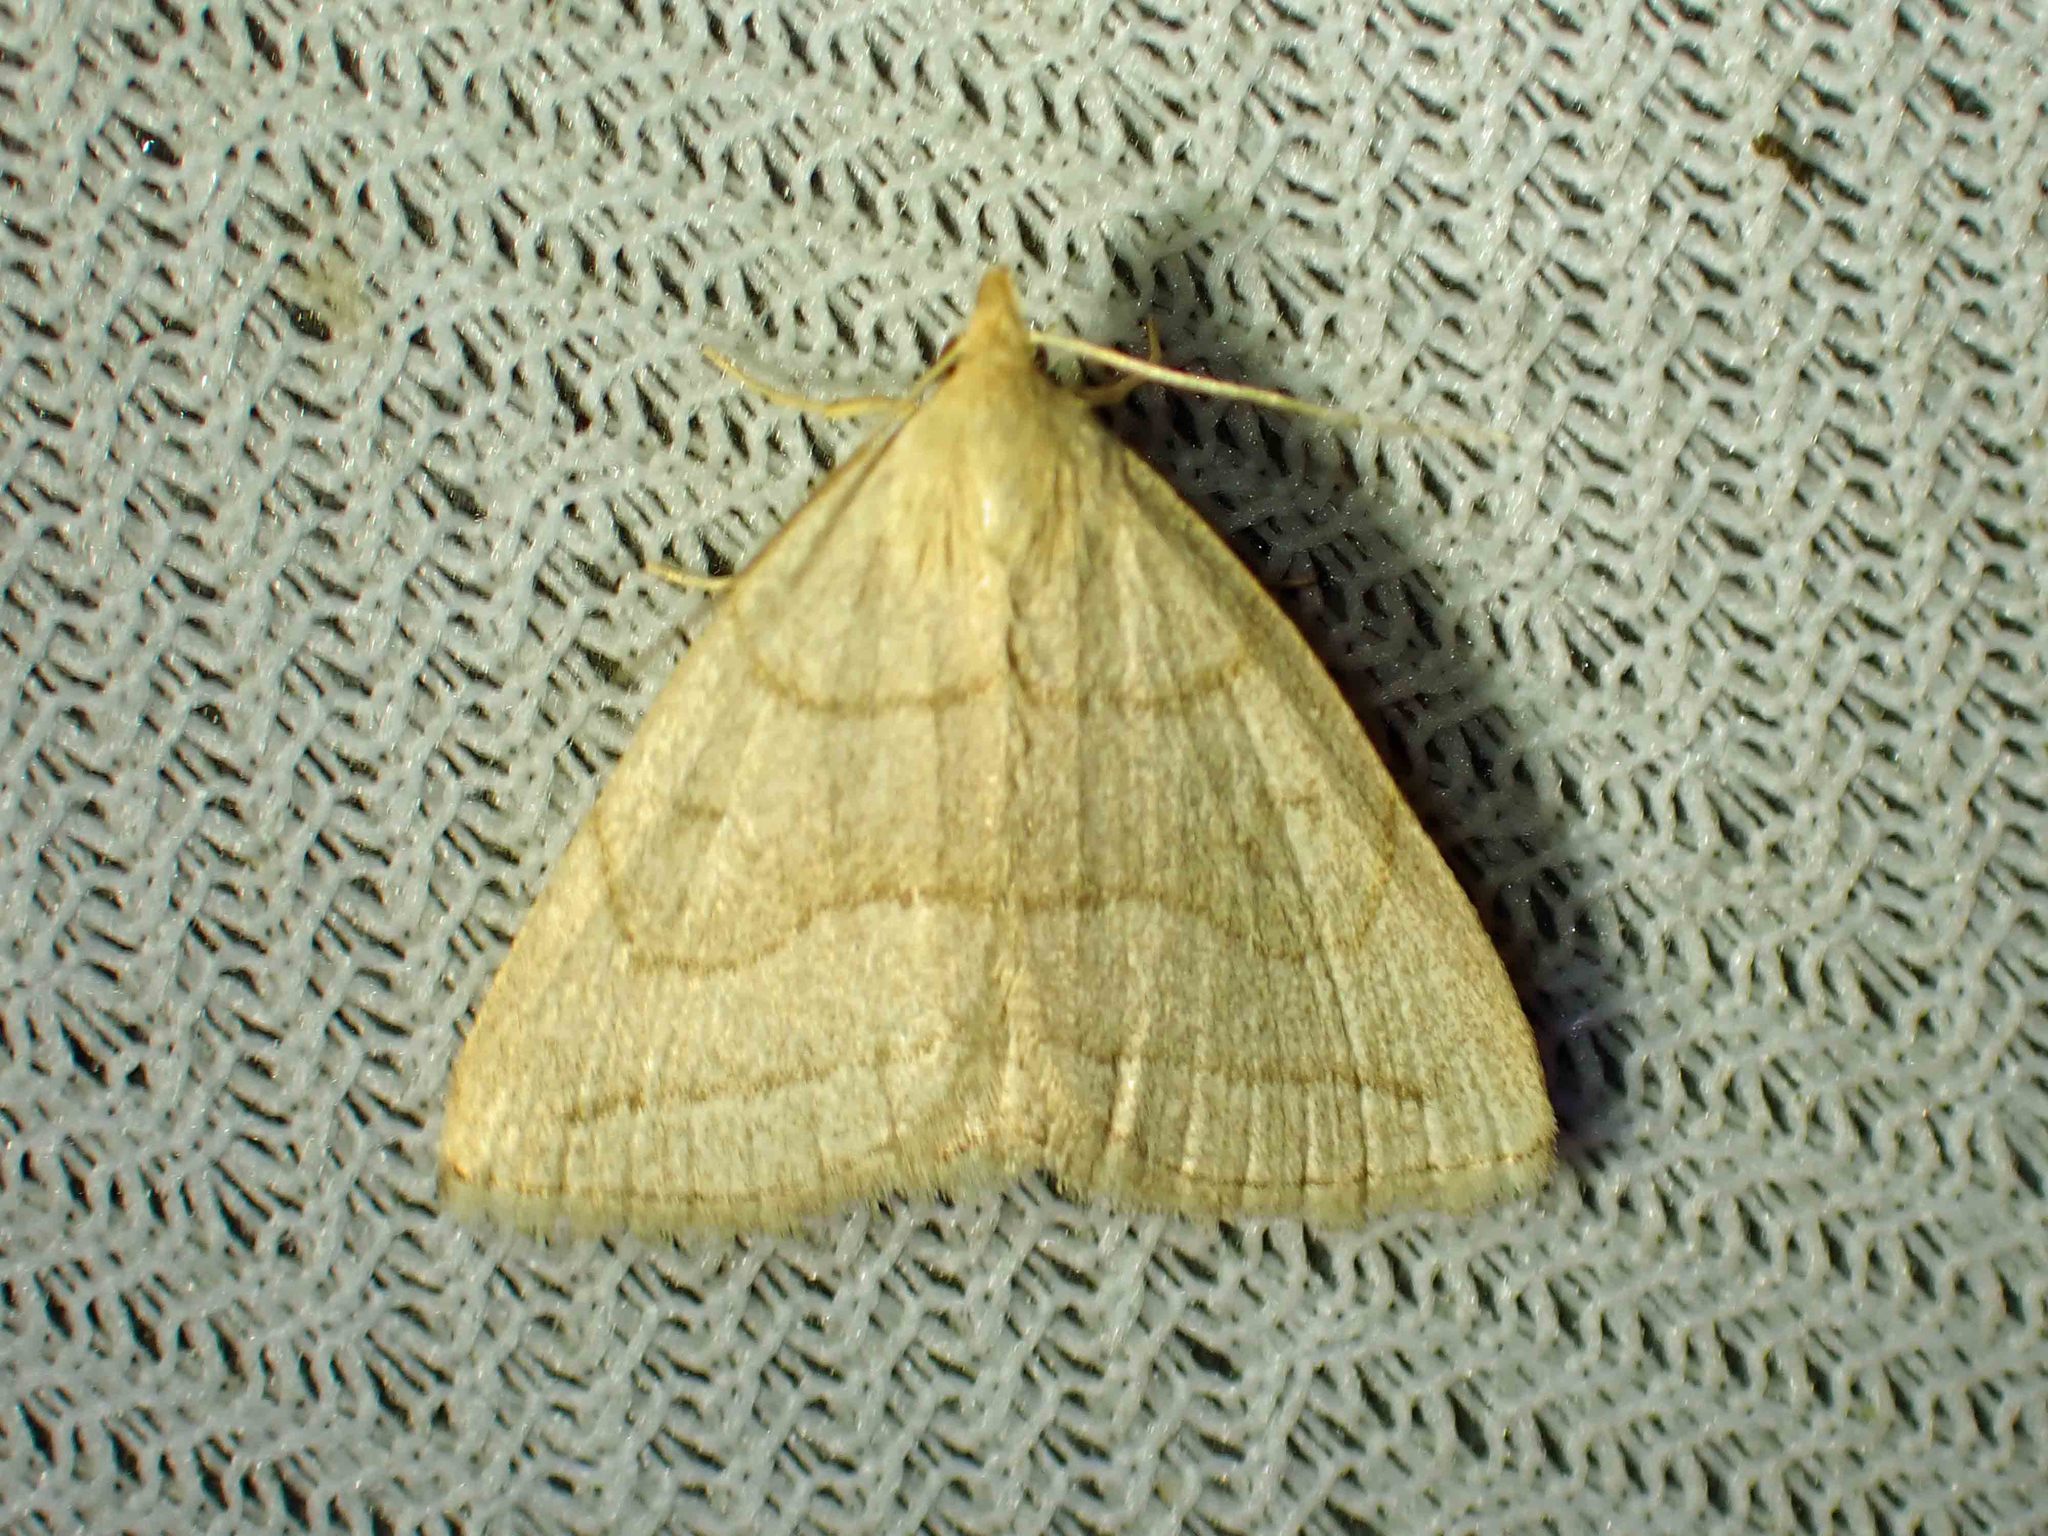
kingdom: Animalia
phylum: Arthropoda
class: Insecta
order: Lepidoptera
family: Erebidae
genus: Zanclognatha
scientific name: Zanclognatha pedipilalis
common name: Grayish fan-foot
